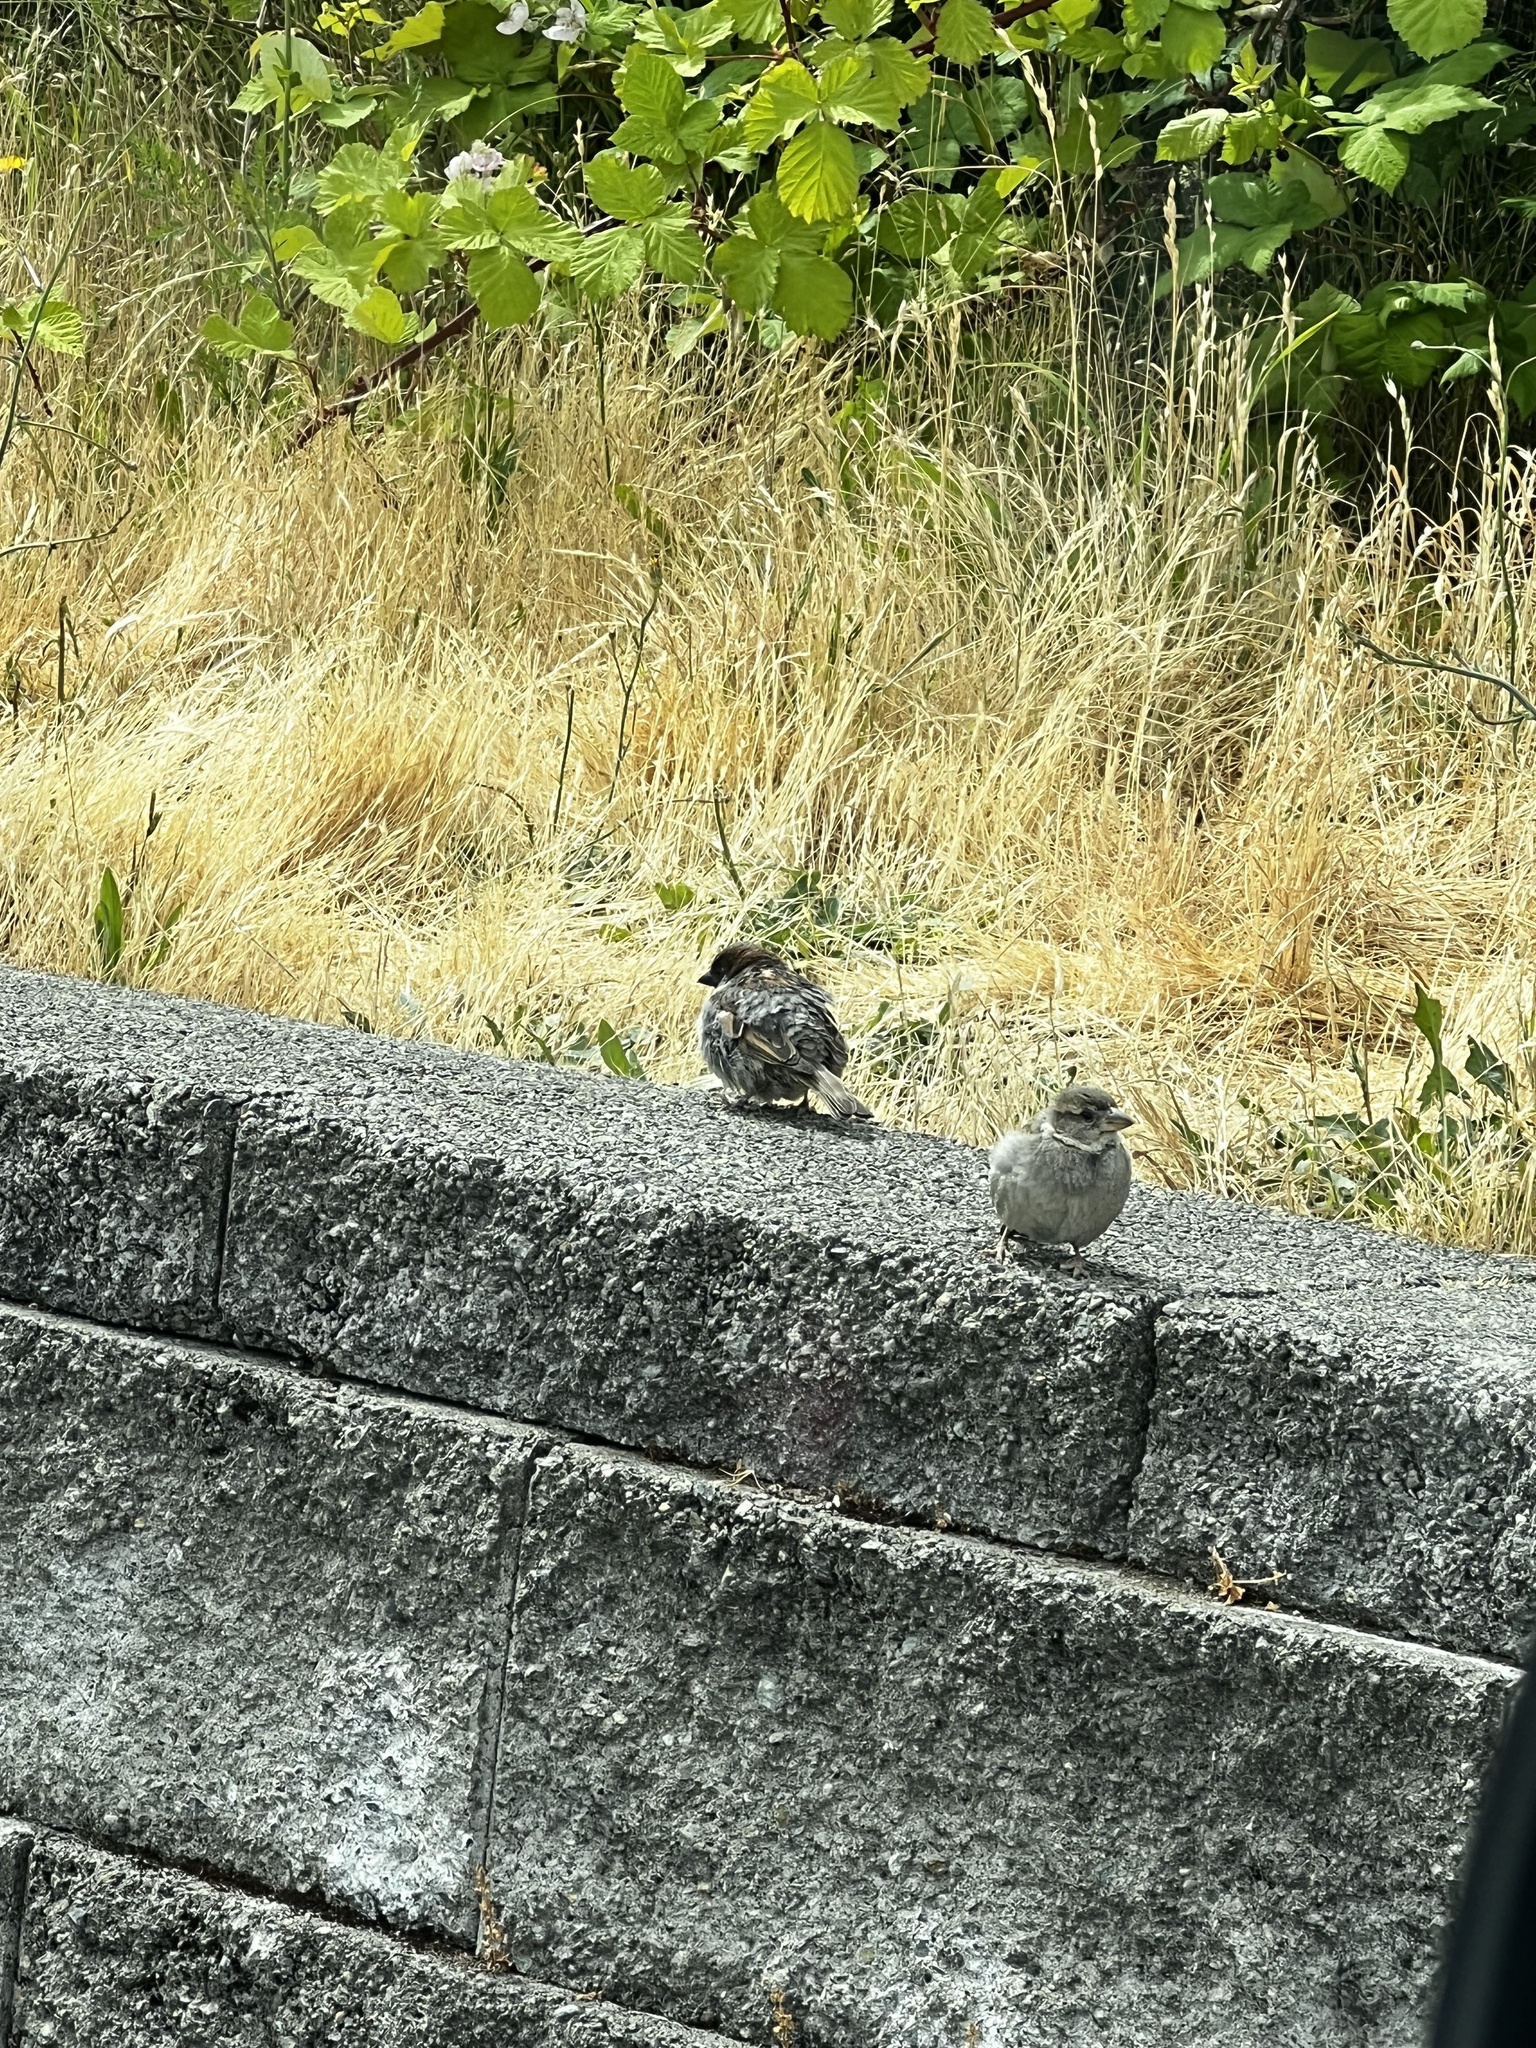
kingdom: Animalia
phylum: Chordata
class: Aves
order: Passeriformes
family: Passeridae
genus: Passer
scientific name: Passer domesticus
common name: House sparrow
